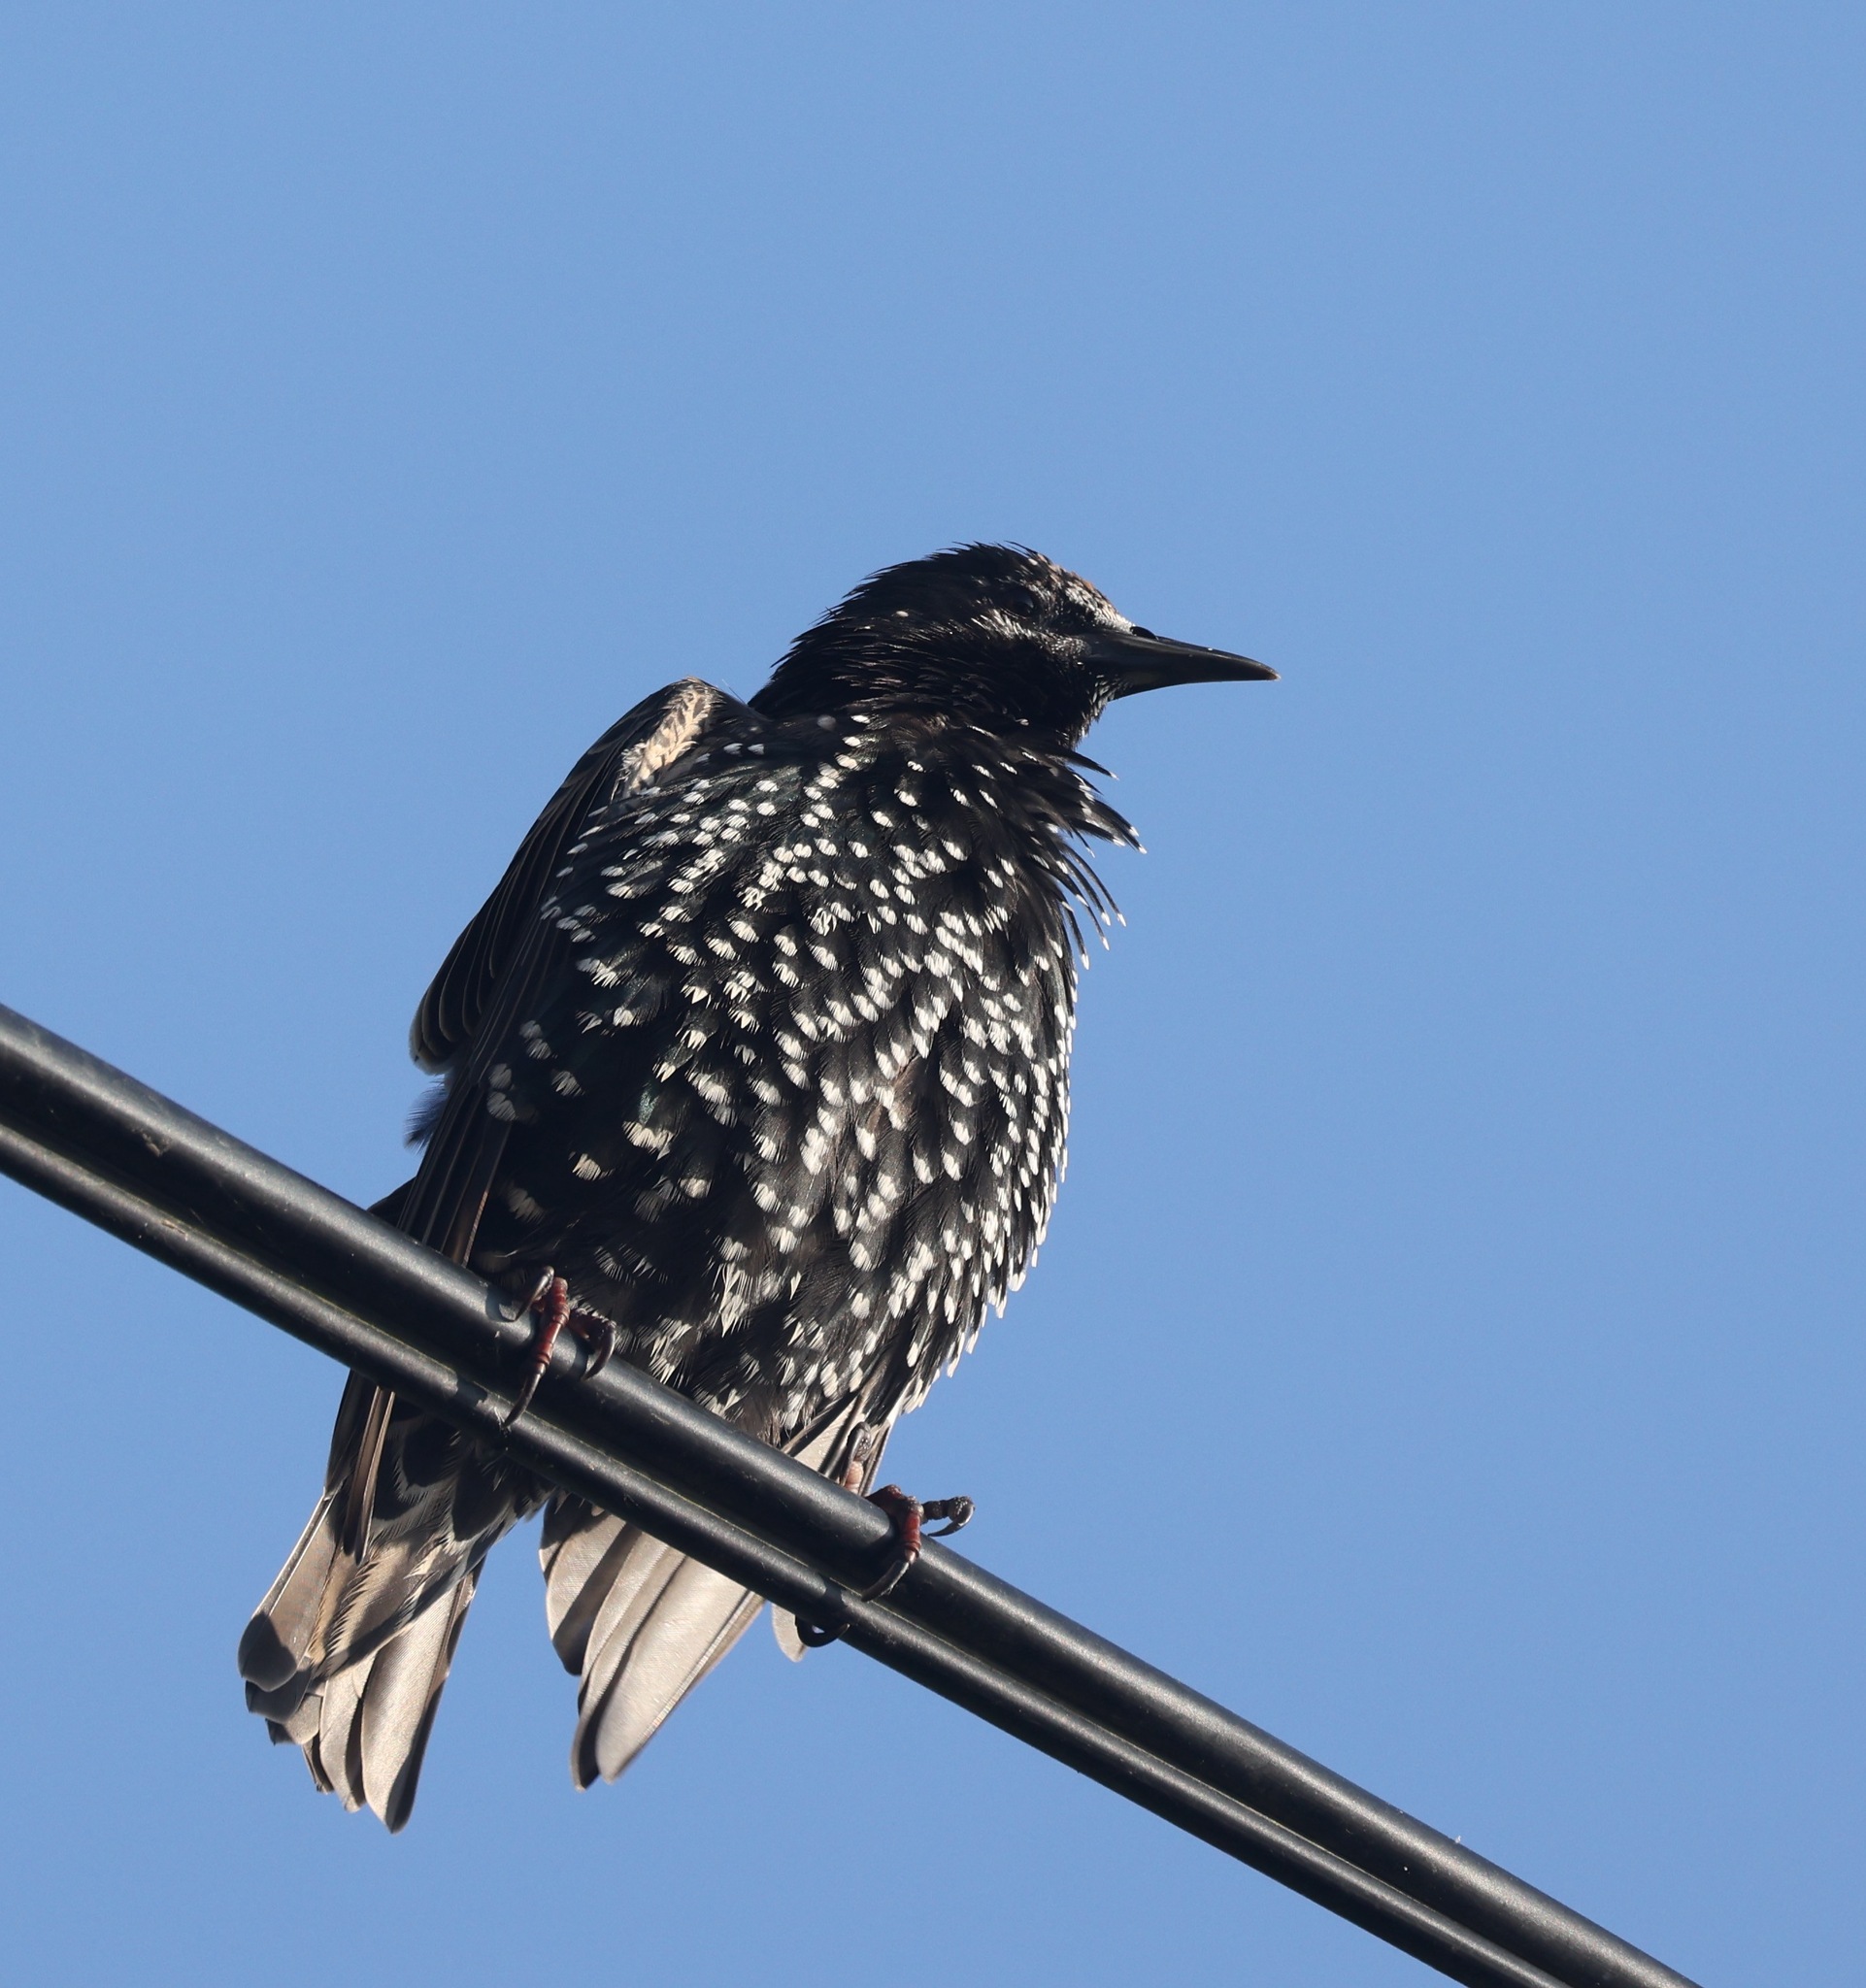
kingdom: Animalia
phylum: Chordata
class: Aves
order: Passeriformes
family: Sturnidae
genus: Sturnus
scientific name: Sturnus vulgaris
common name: Common starling
